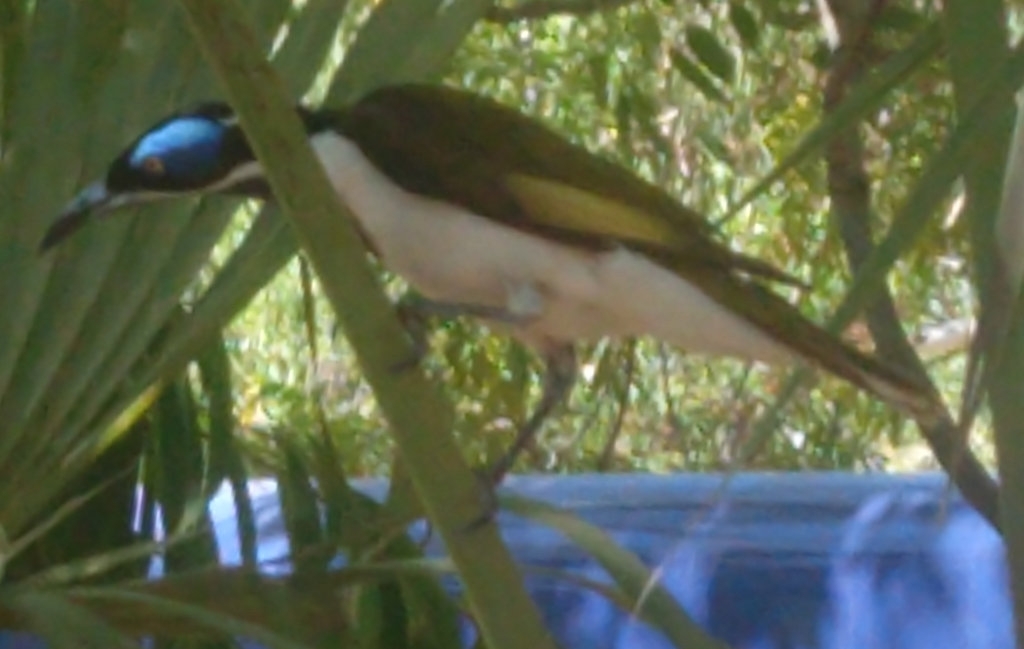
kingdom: Animalia
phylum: Chordata
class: Aves
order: Passeriformes
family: Meliphagidae
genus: Entomyzon
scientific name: Entomyzon cyanotis
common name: Blue-faced honeyeater
